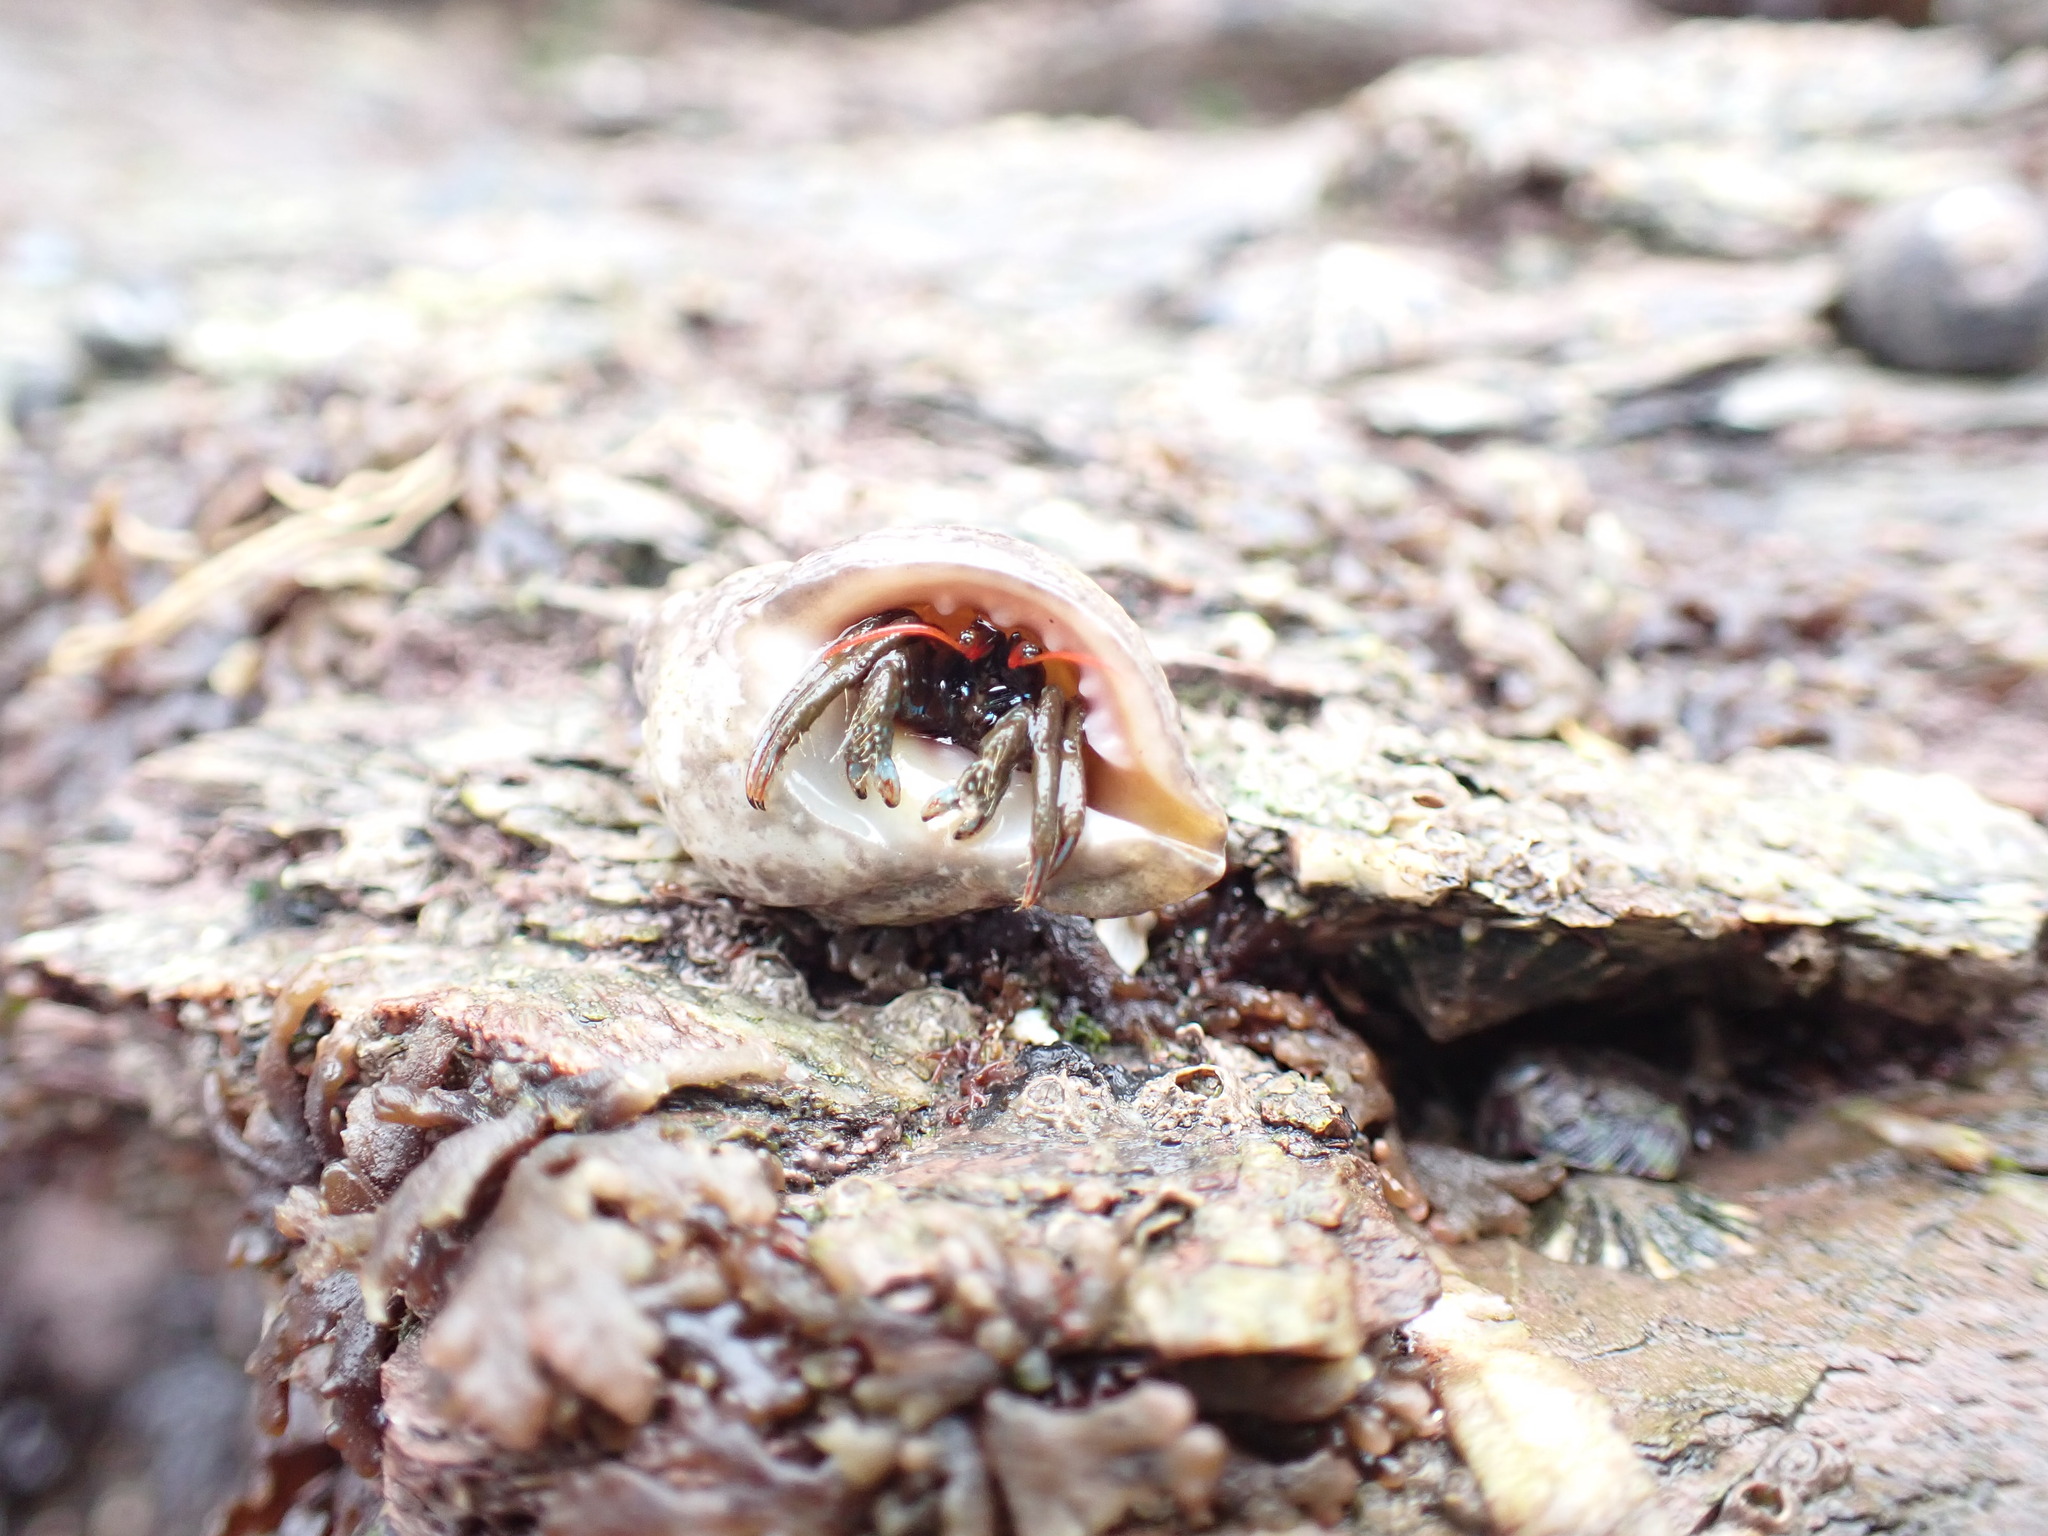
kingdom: Animalia
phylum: Arthropoda
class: Malacostraca
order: Decapoda
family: Diogenidae
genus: Clibanarius
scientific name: Clibanarius erythropus
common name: Hermit crab
